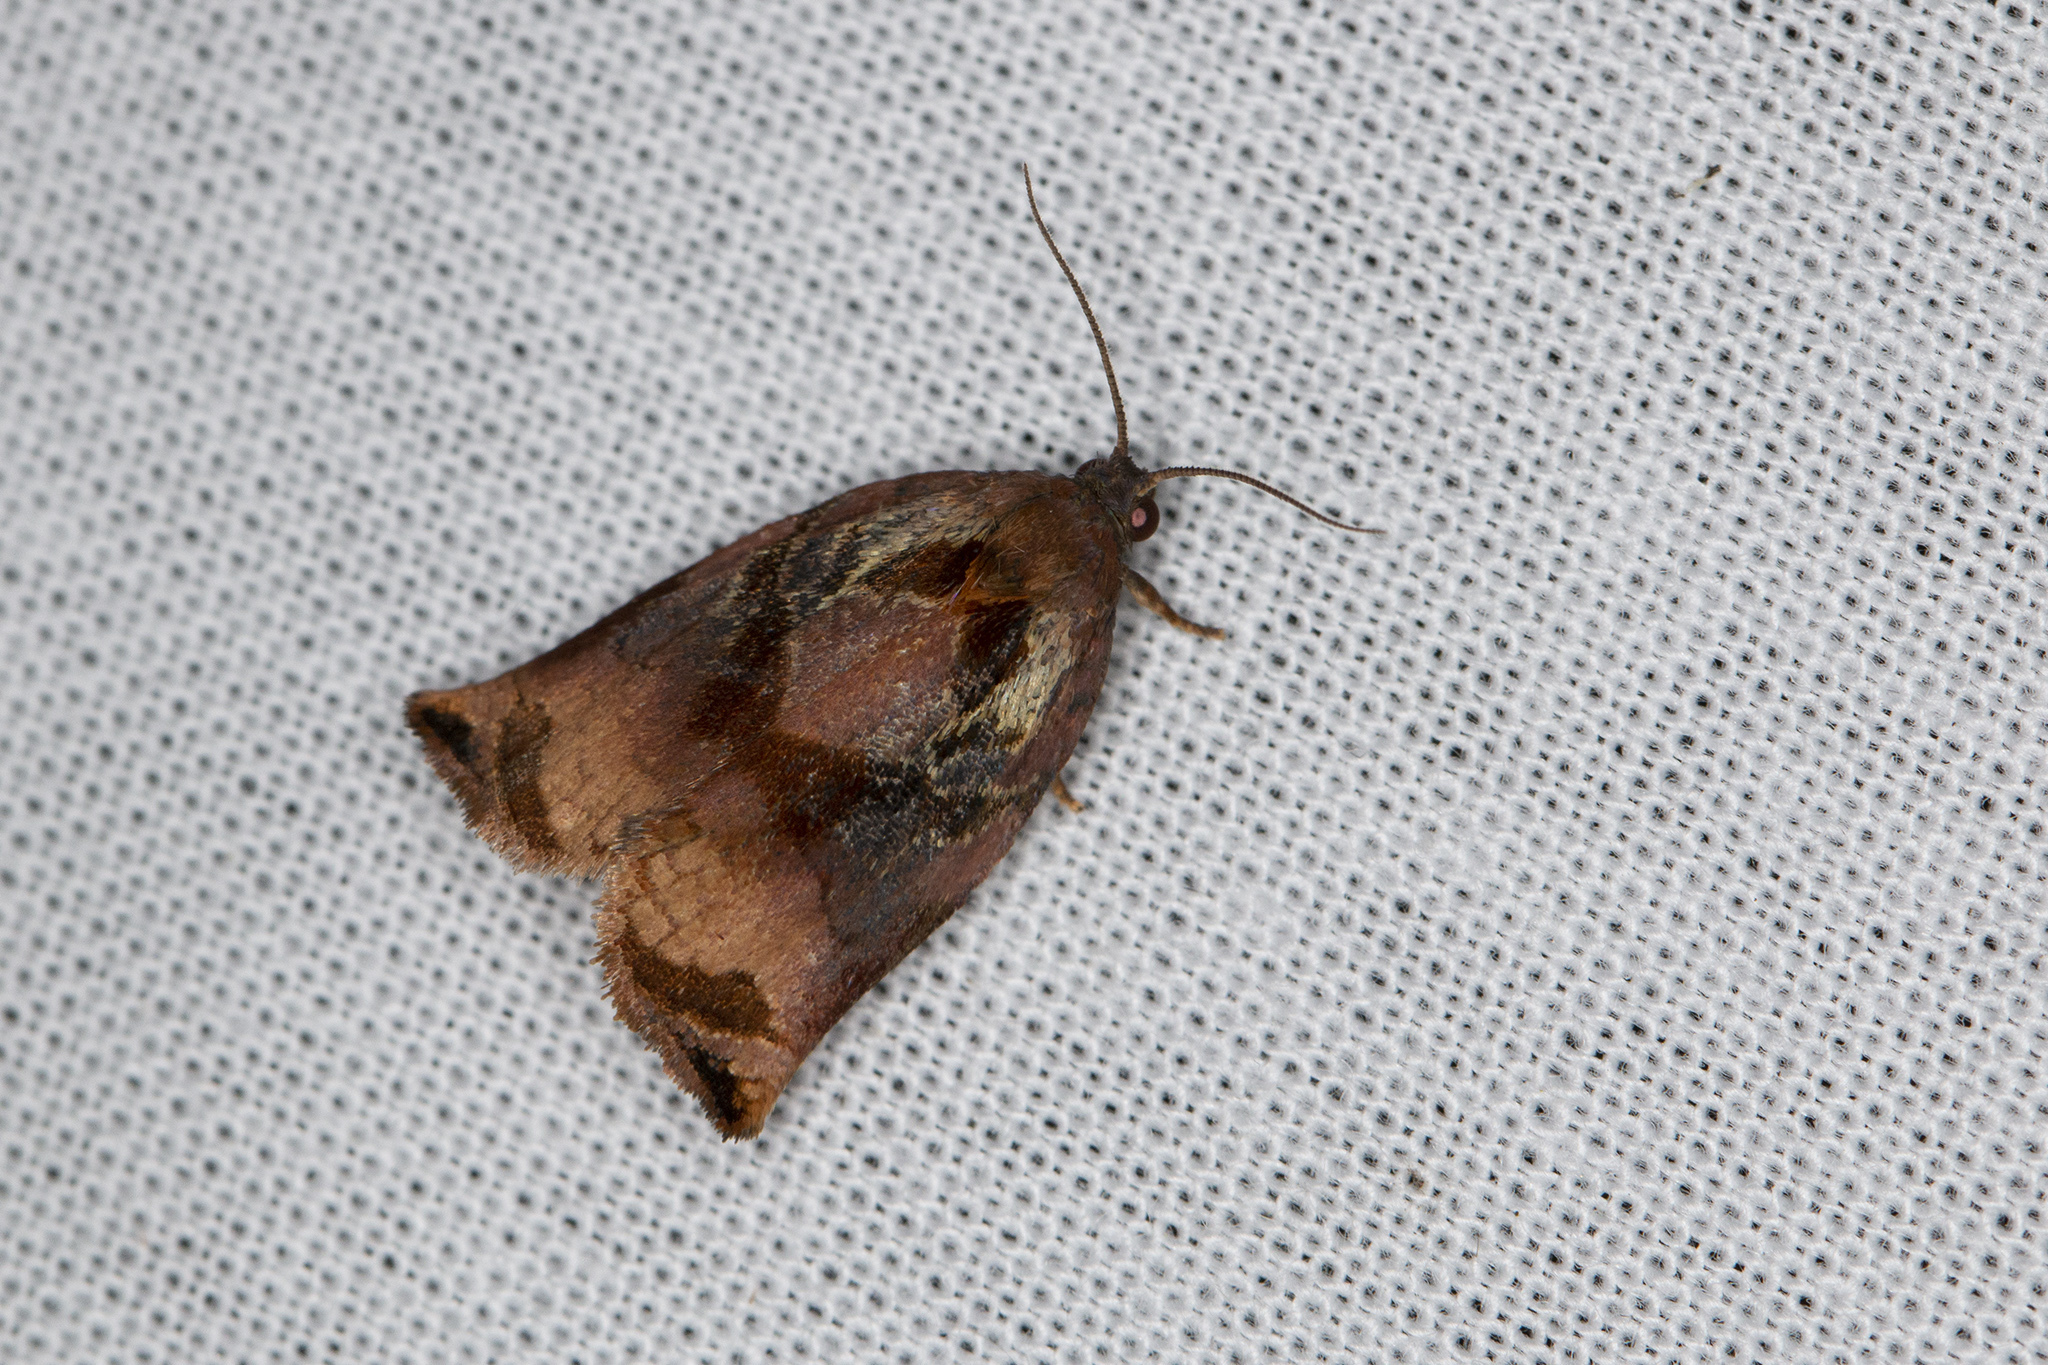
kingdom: Animalia
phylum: Arthropoda
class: Insecta
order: Lepidoptera
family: Tortricidae
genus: Archips
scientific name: Archips podana
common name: Large fruit-tree tortrix
